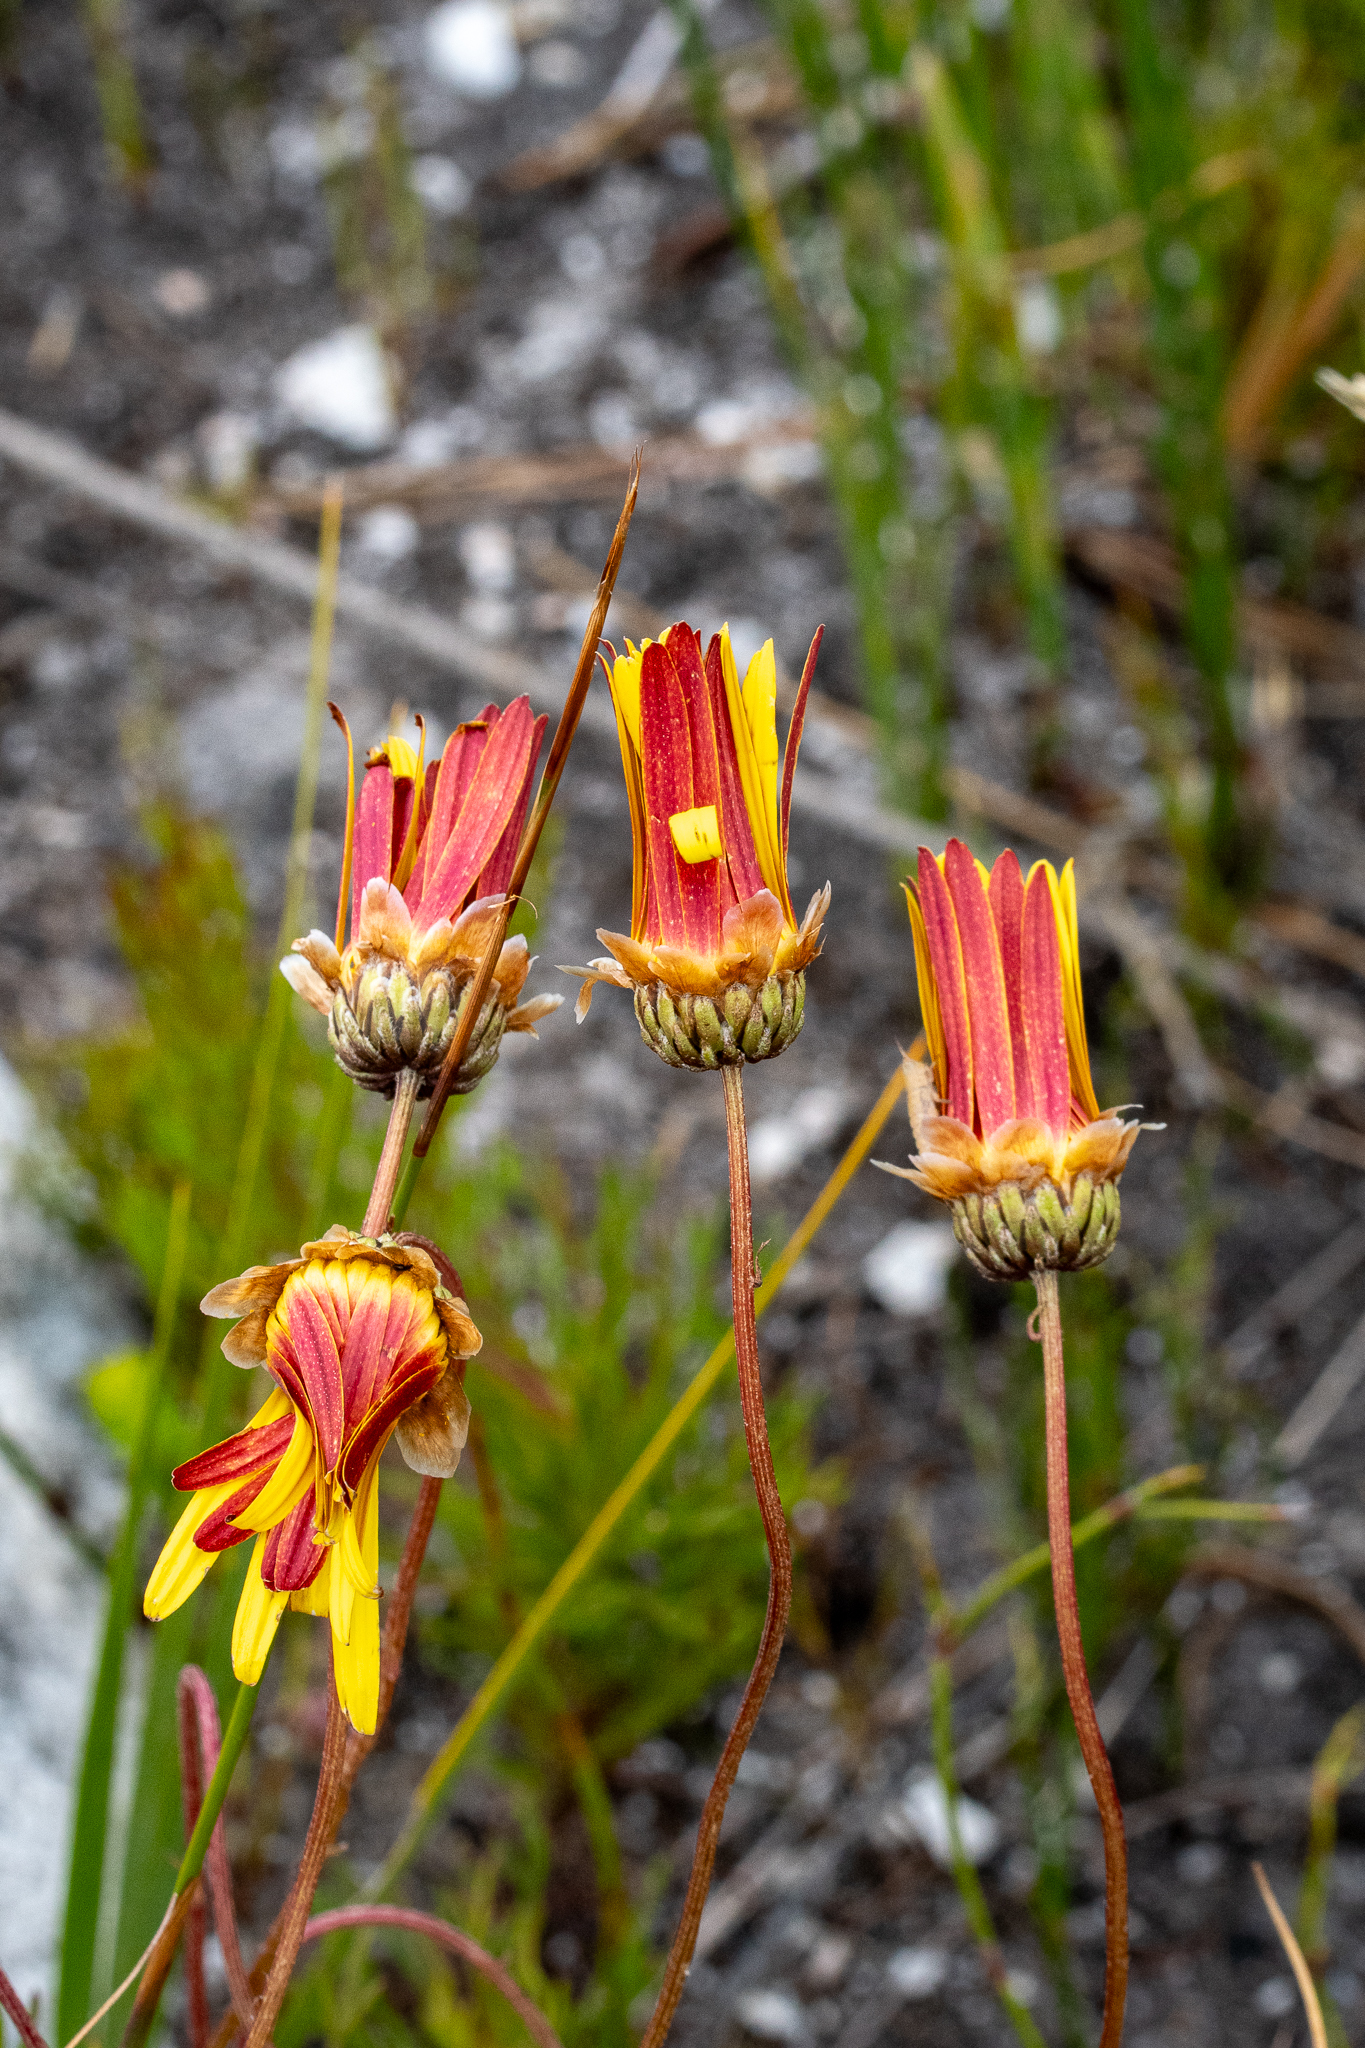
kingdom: Plantae
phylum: Tracheophyta
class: Magnoliopsida
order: Asterales
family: Asteraceae
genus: Ursinia
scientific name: Ursinia paleacea
